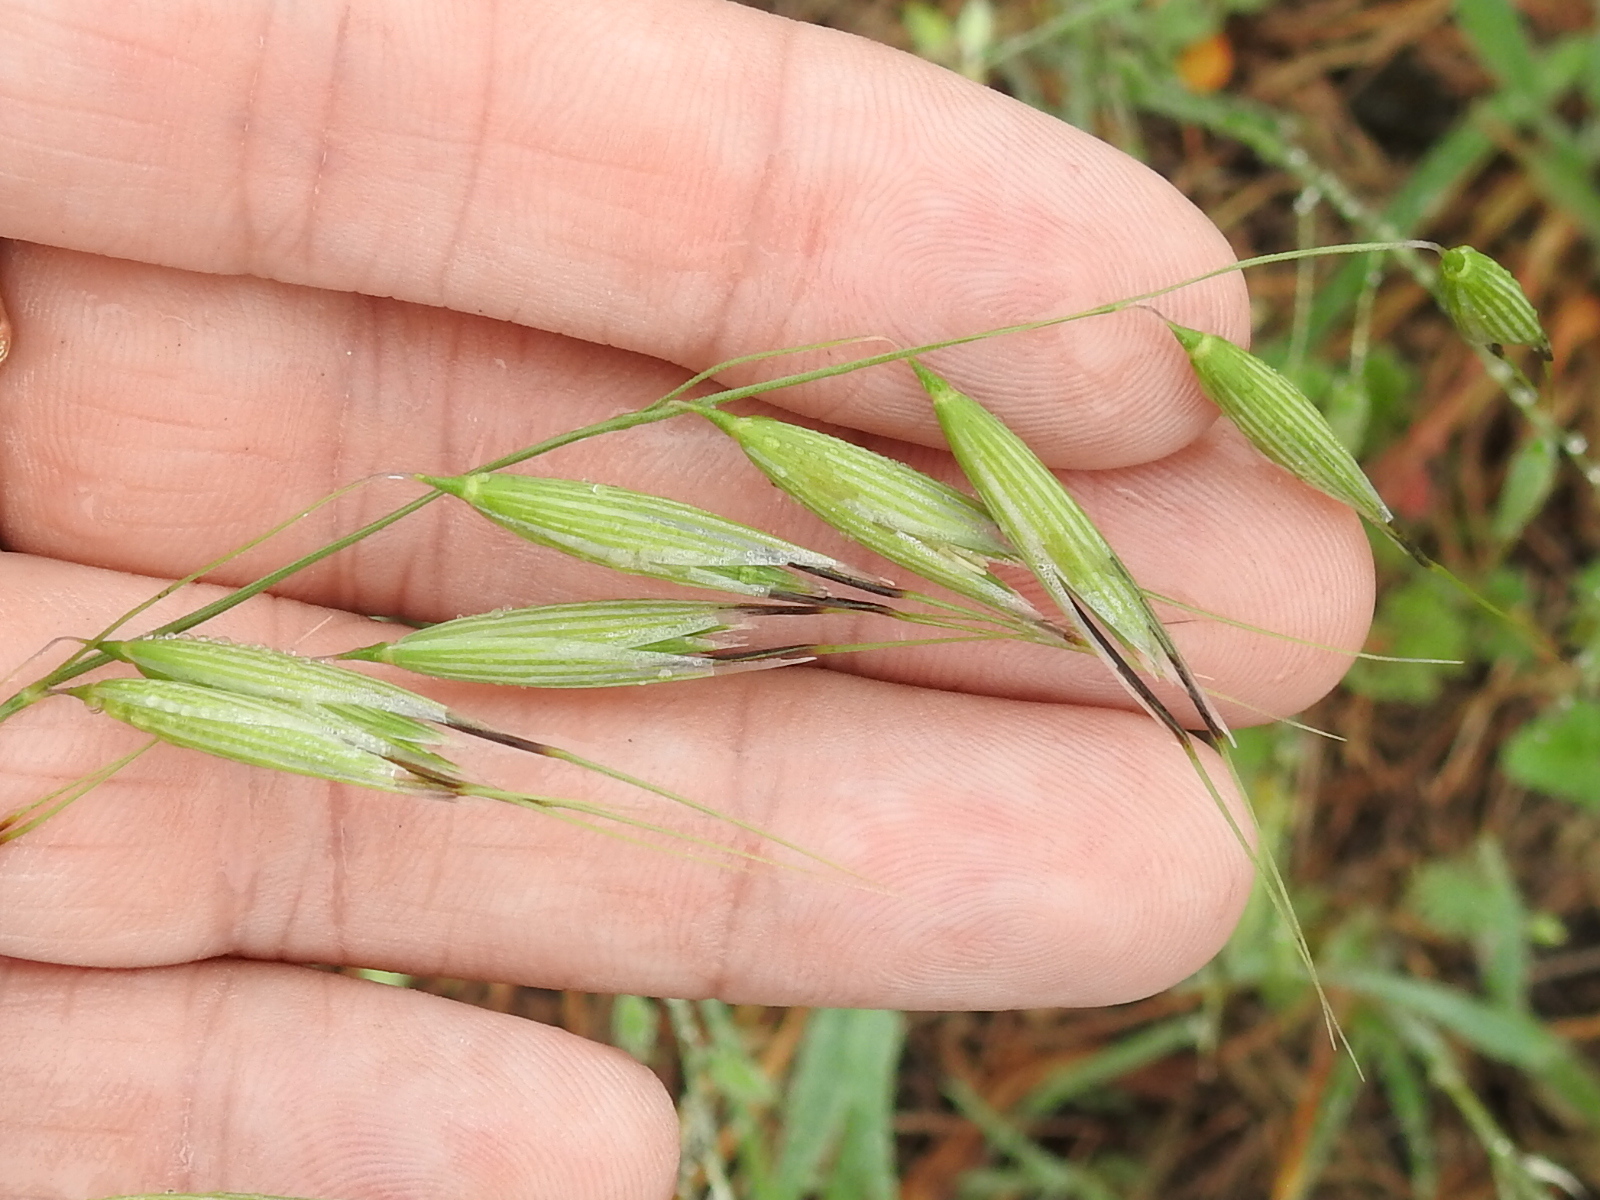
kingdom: Plantae
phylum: Tracheophyta
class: Liliopsida
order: Poales
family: Poaceae
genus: Avena
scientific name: Avena sativa
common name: Oat
